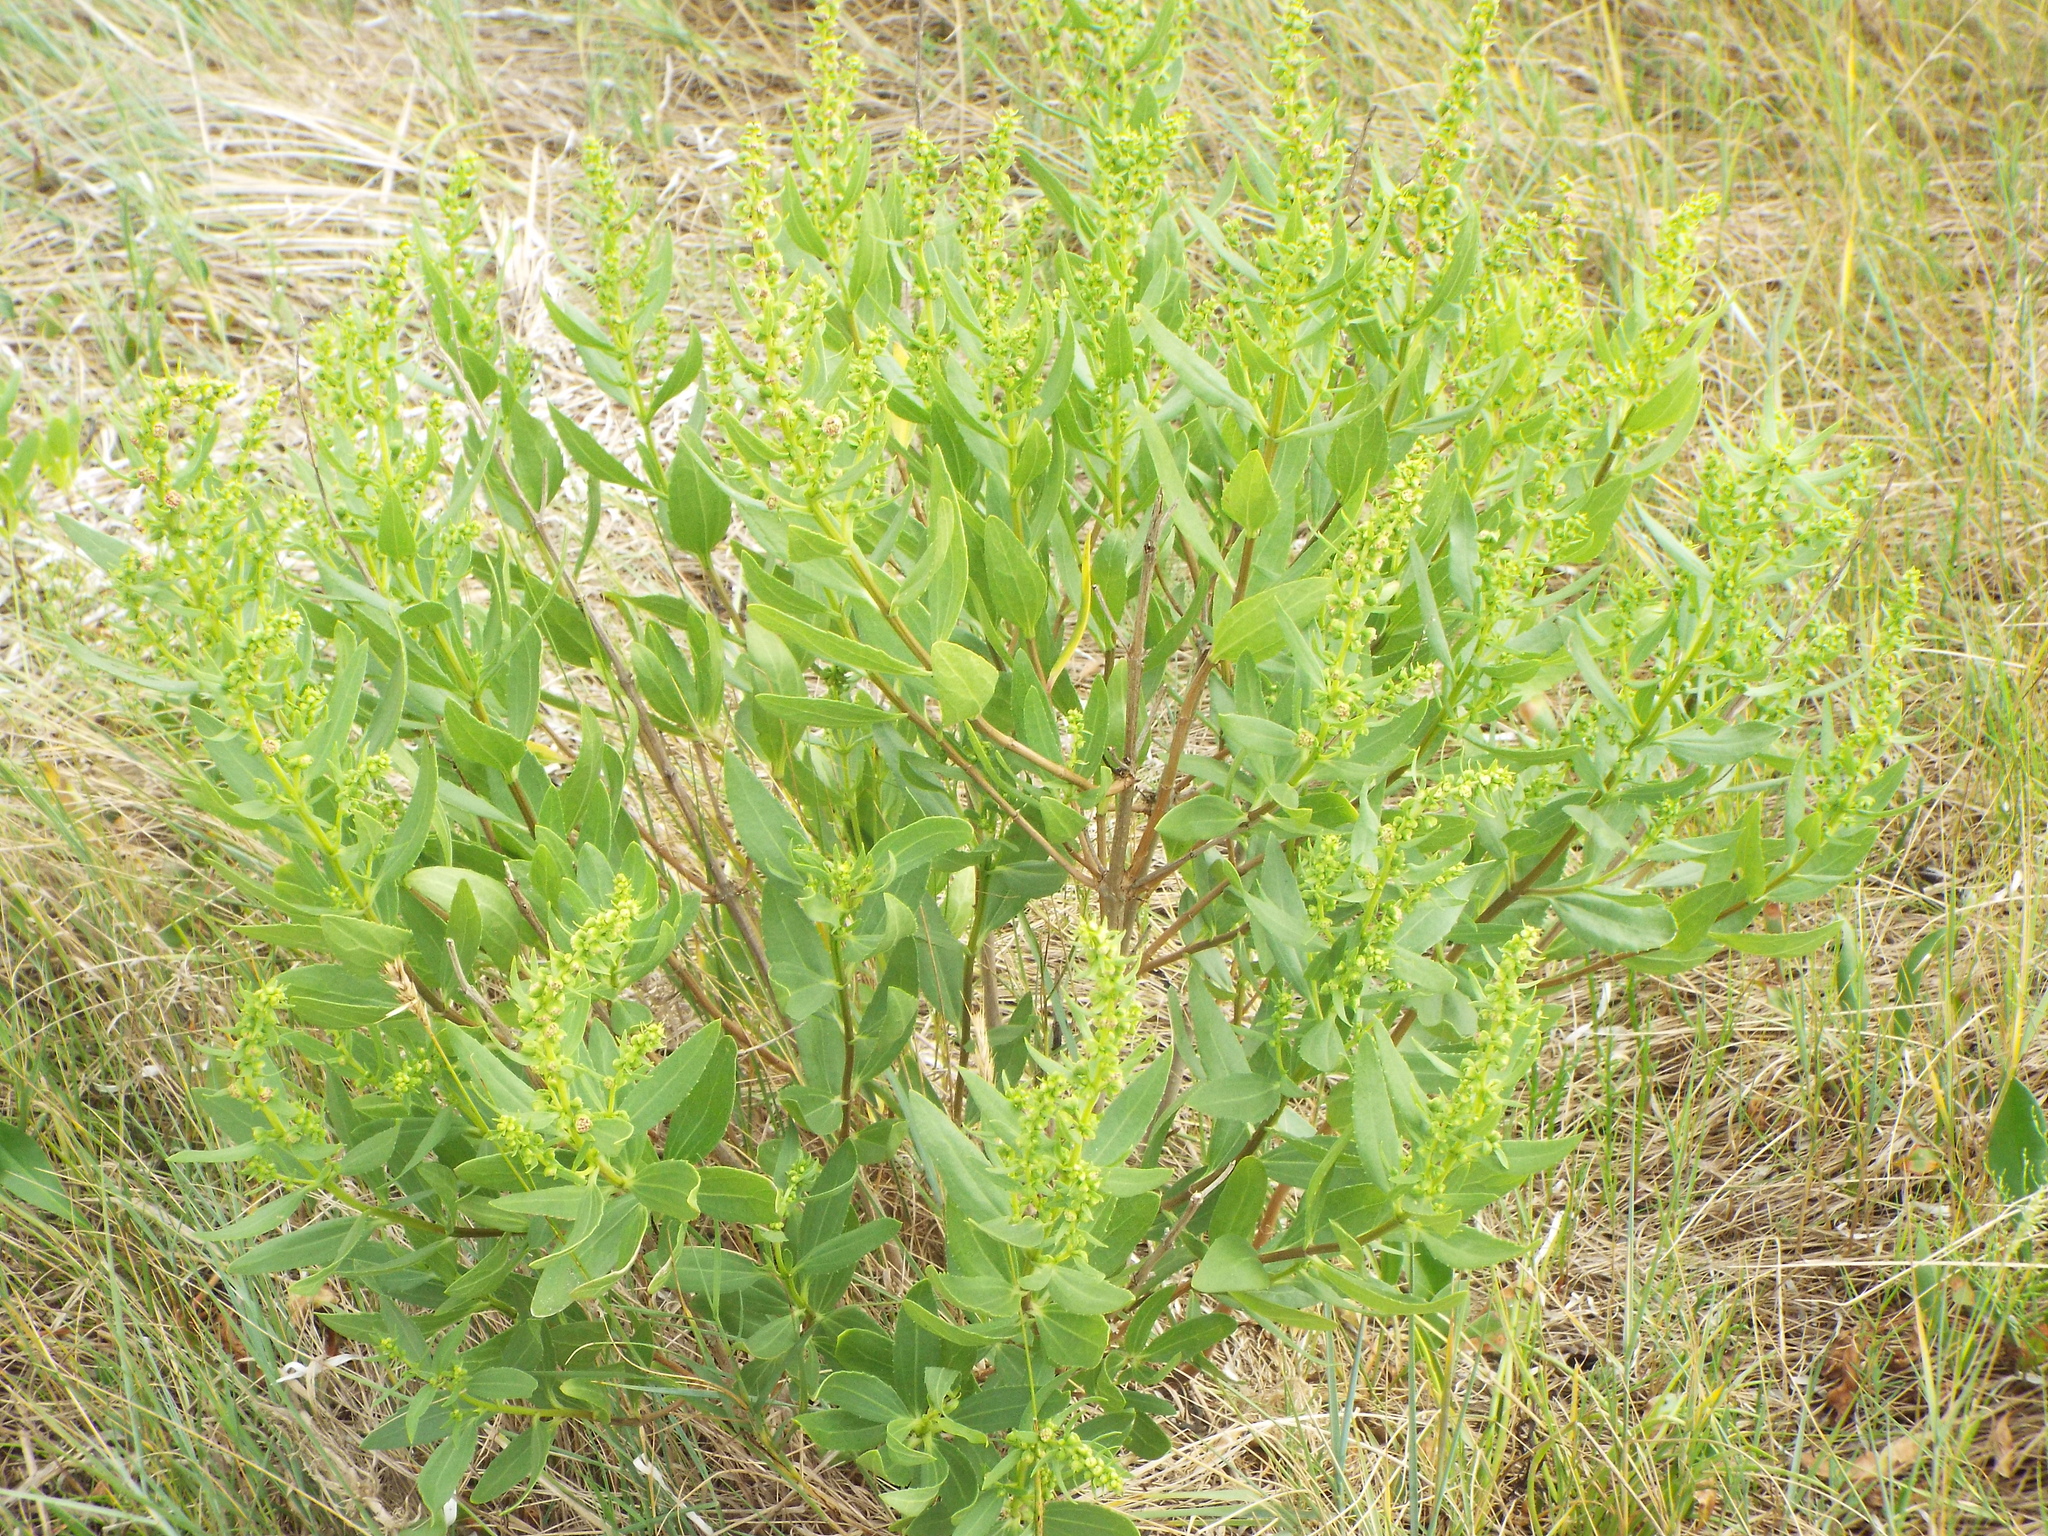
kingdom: Plantae
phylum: Tracheophyta
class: Magnoliopsida
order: Asterales
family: Asteraceae
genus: Iva
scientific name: Iva frutescens
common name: Big-leaved marsh-elder
